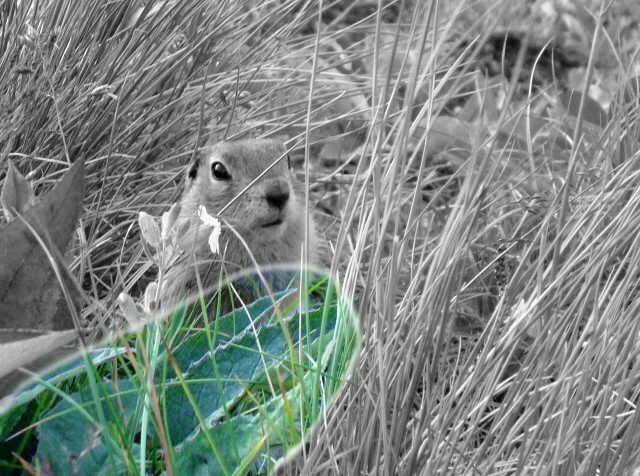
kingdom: Plantae
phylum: Tracheophyta
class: Magnoliopsida
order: Asterales
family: Asteraceae
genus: Saussurea
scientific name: Saussurea pseudotilesii
